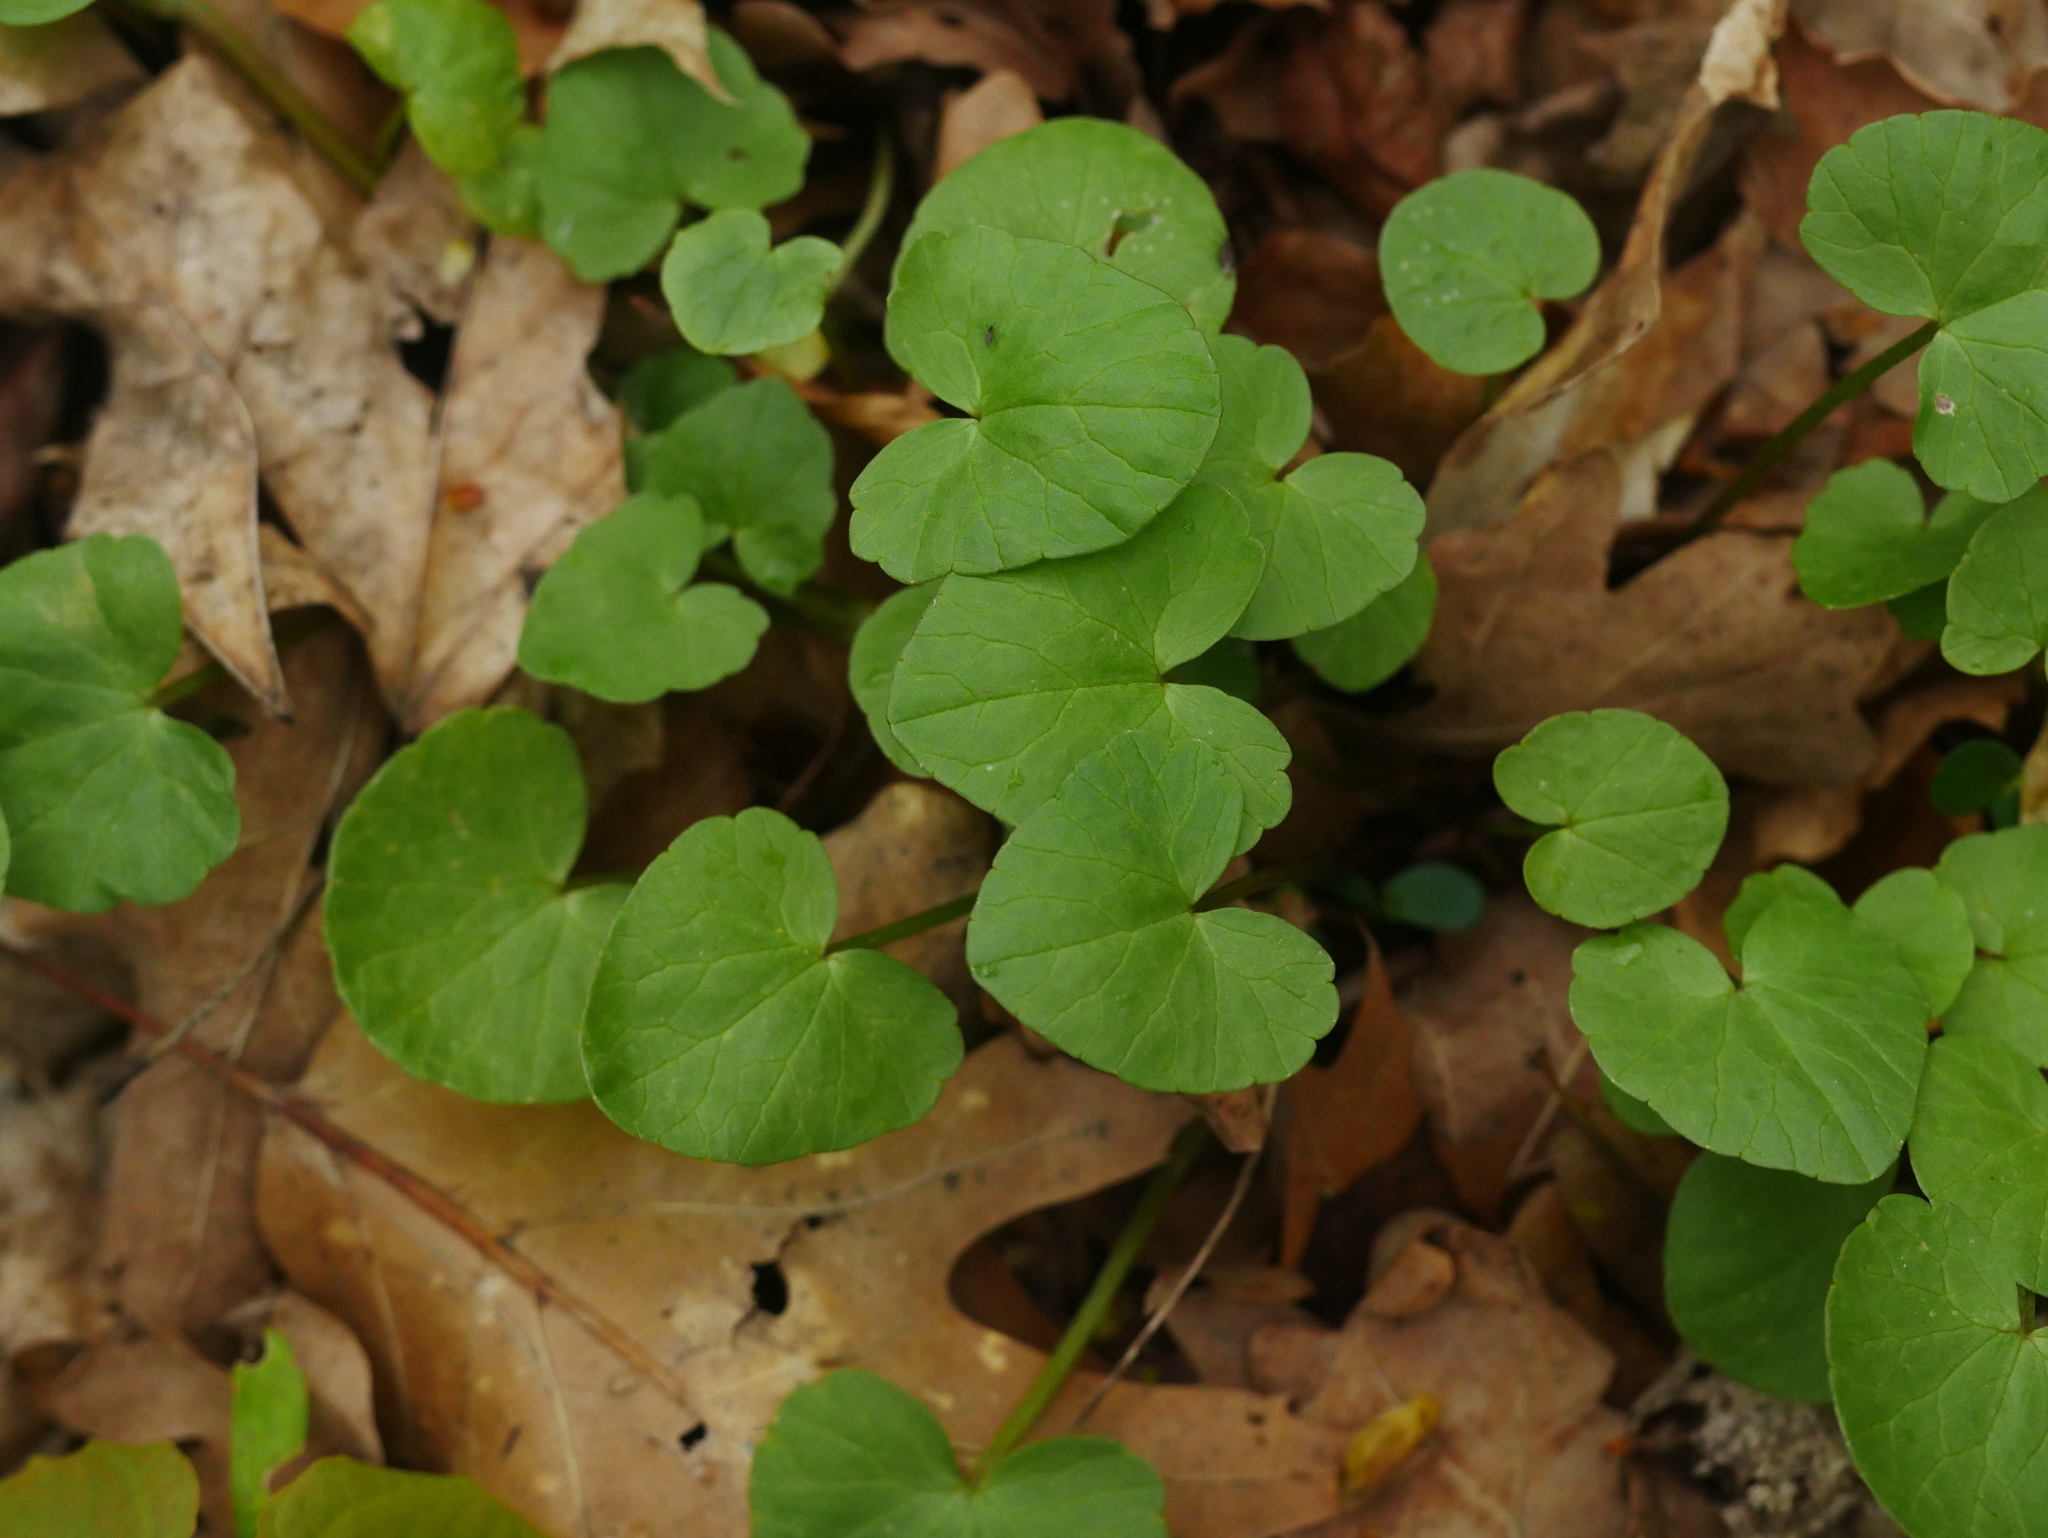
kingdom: Plantae
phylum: Tracheophyta
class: Magnoliopsida
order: Ranunculales
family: Ranunculaceae
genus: Ficaria
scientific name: Ficaria verna
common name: Lesser celandine
